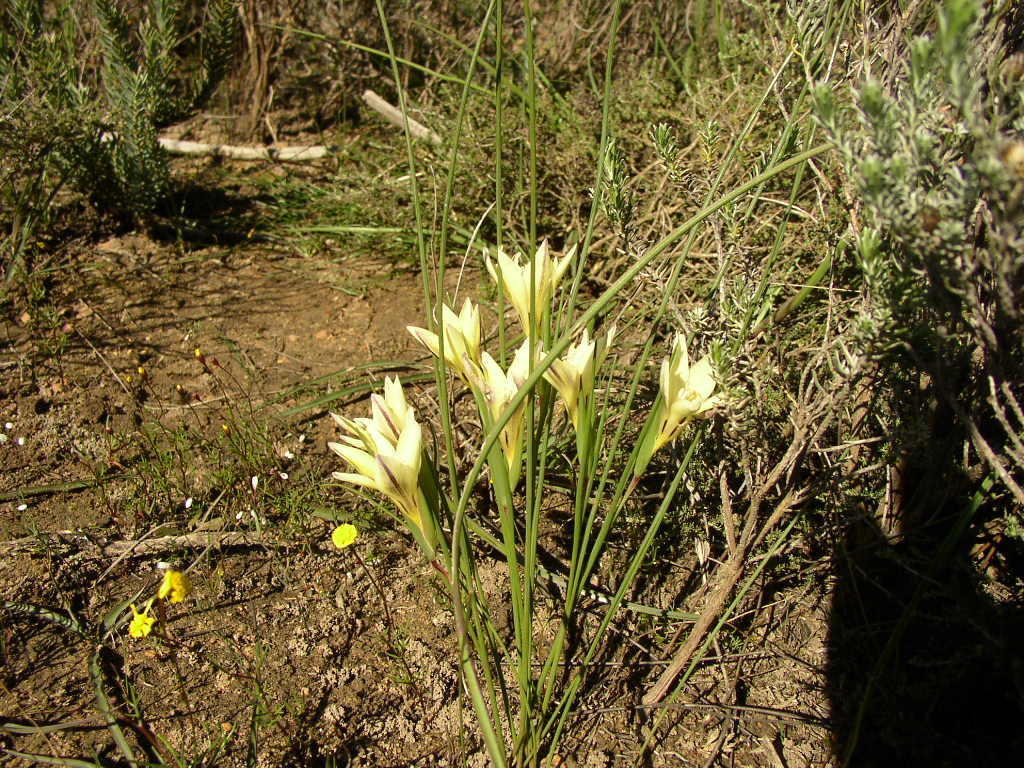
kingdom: Plantae
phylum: Tracheophyta
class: Liliopsida
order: Asparagales
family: Iridaceae
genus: Gladiolus
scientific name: Gladiolus trichonemifolius
